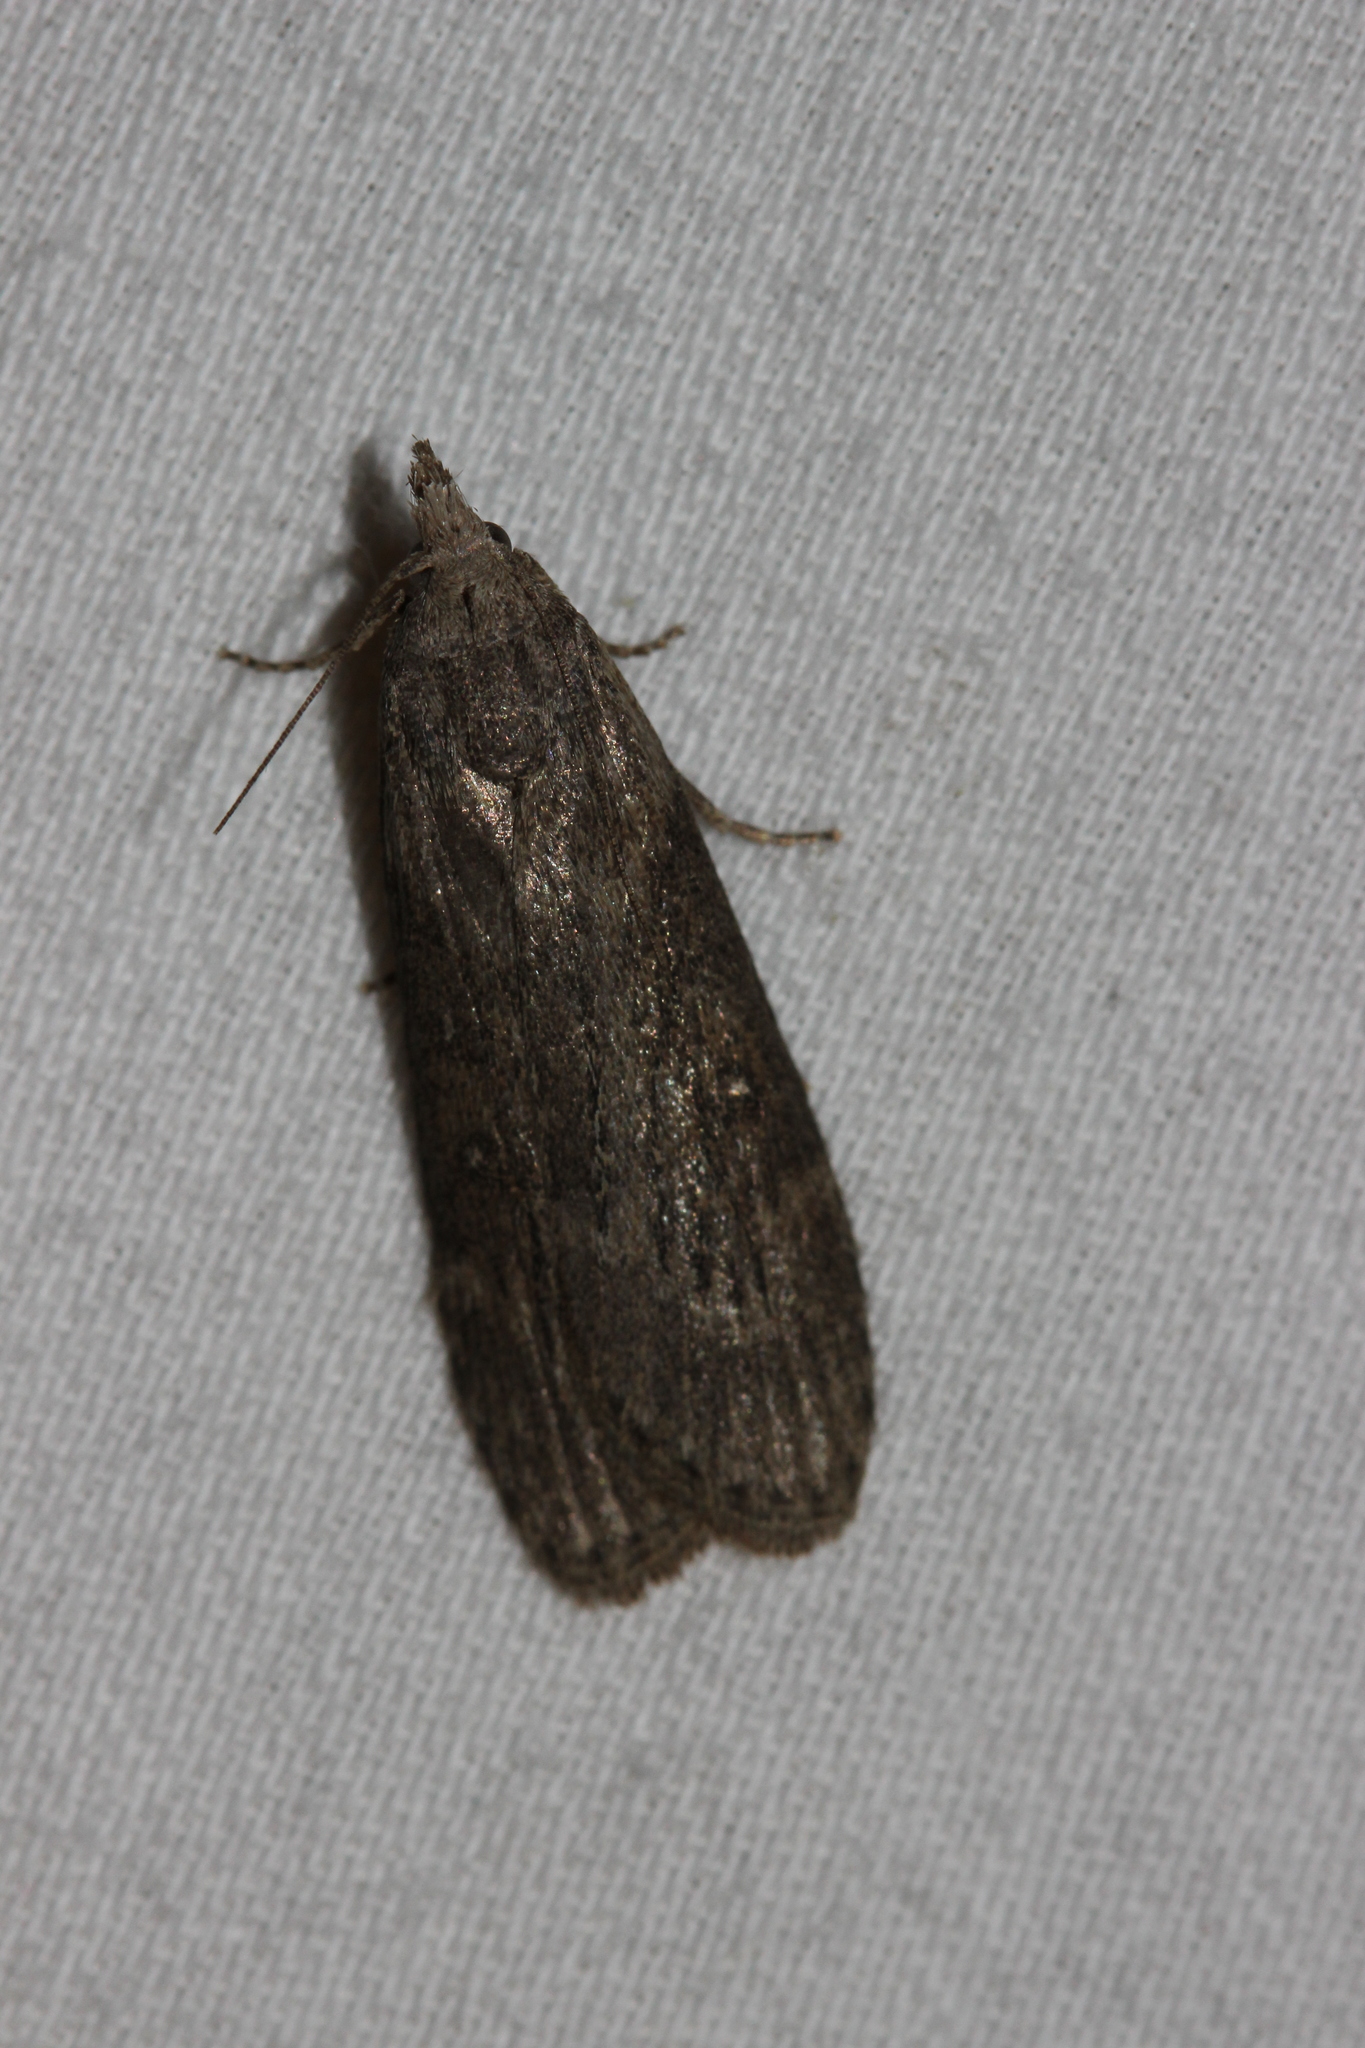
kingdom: Animalia
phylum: Arthropoda
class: Insecta
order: Lepidoptera
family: Pyralidae
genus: Lamoria
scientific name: Lamoria anella
